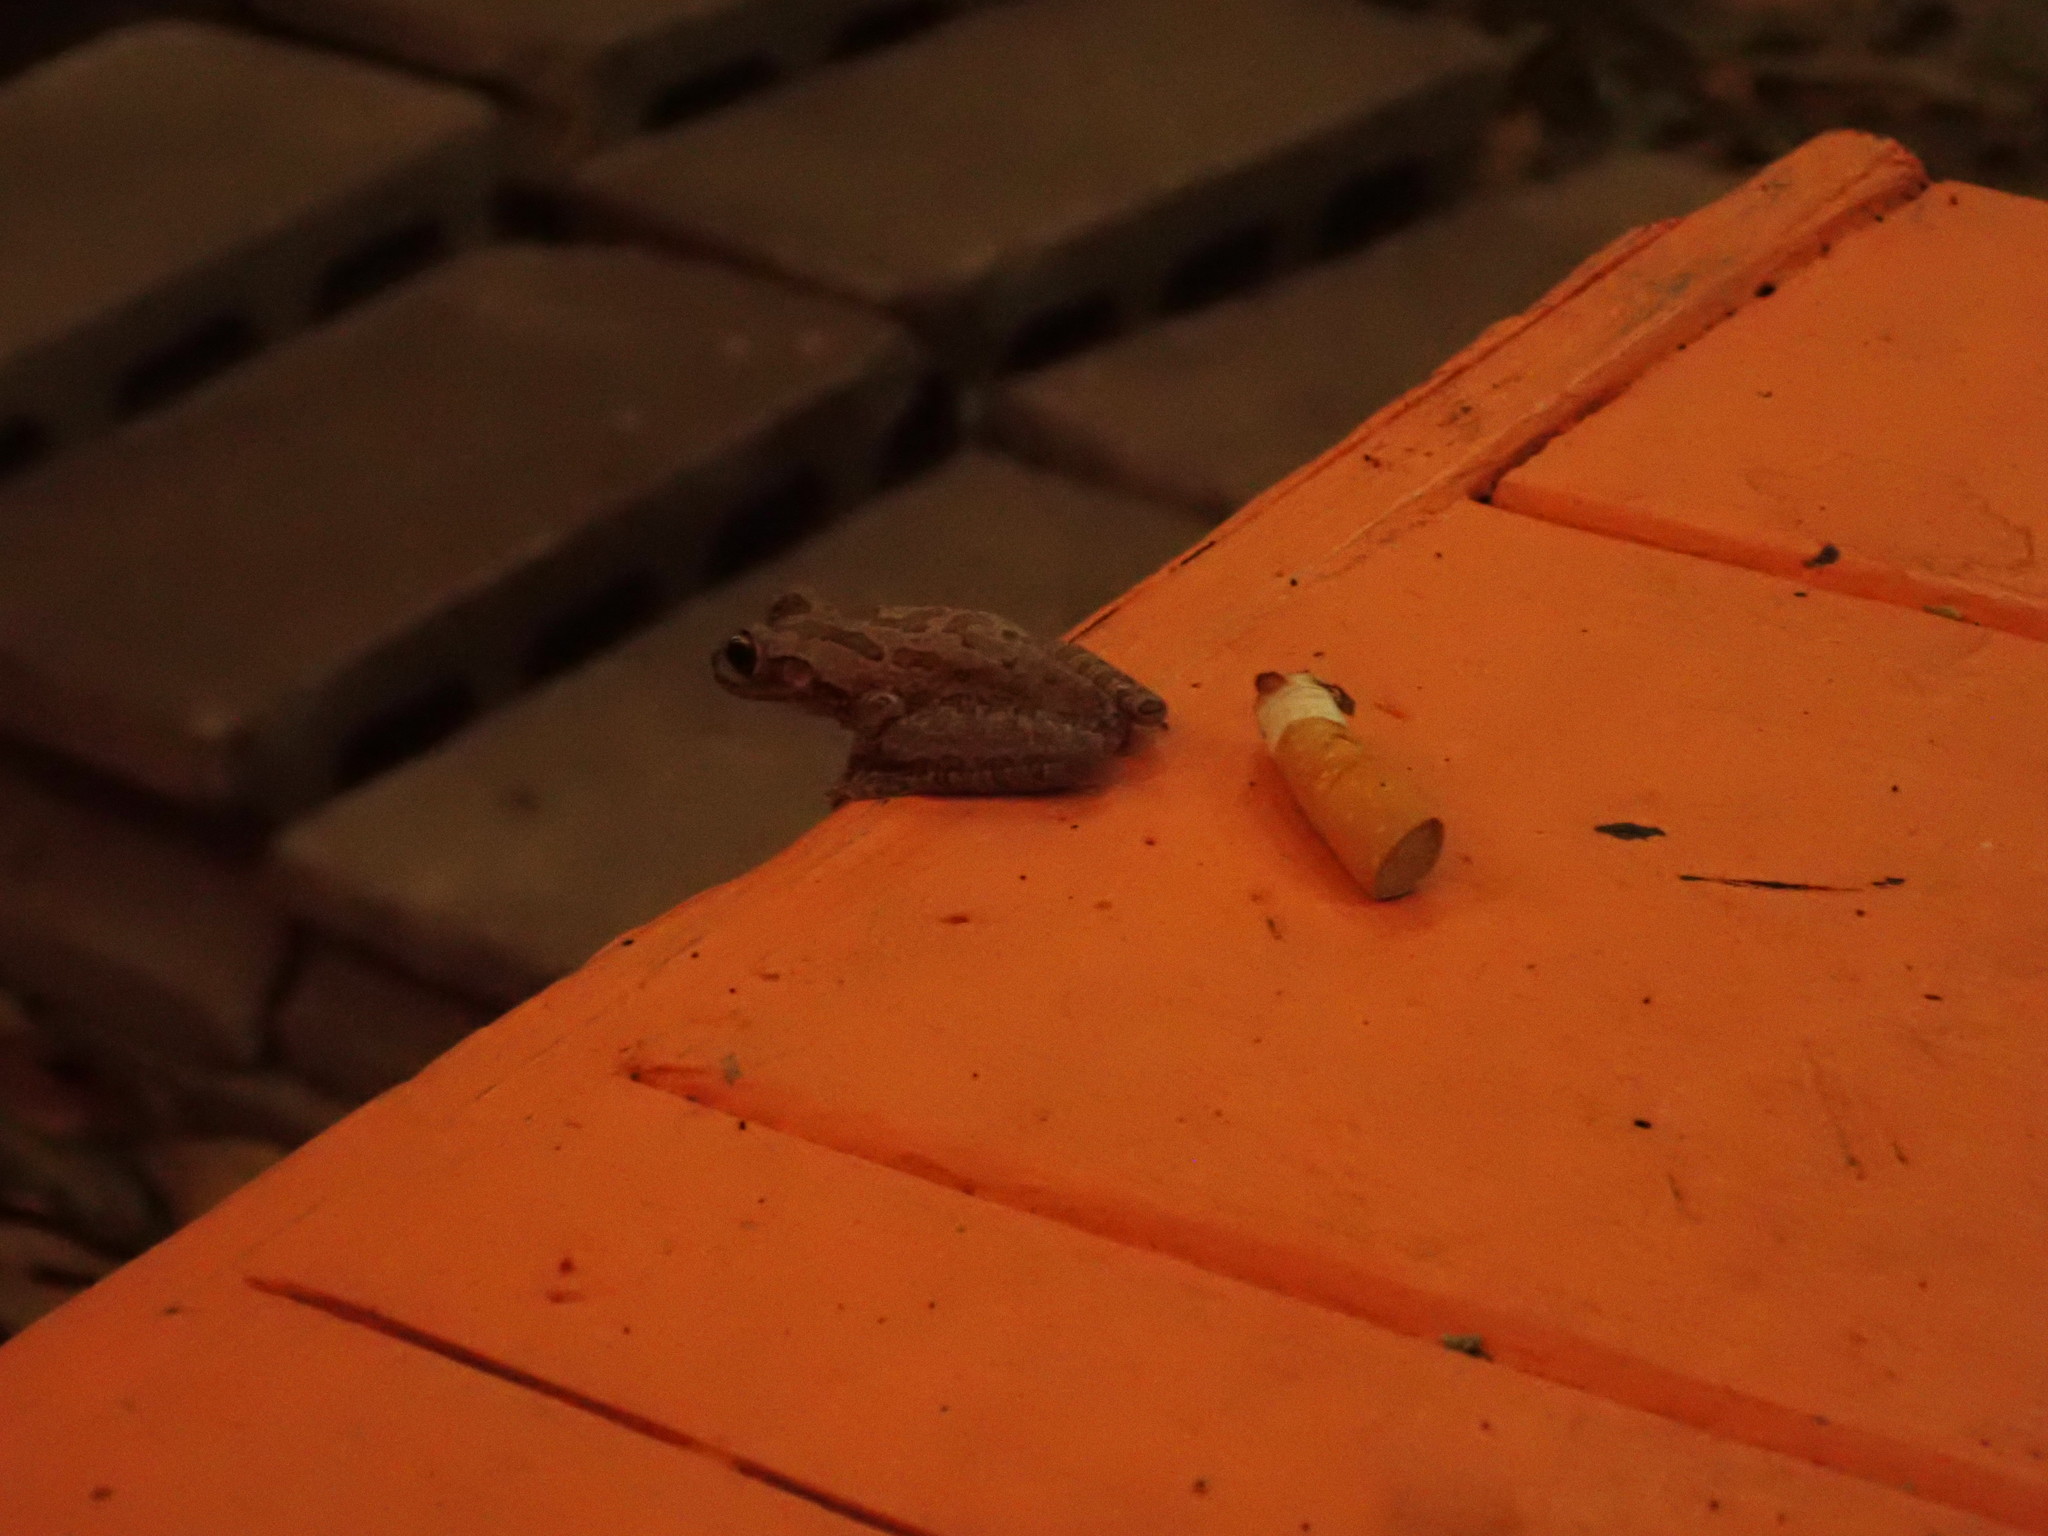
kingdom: Animalia
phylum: Chordata
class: Amphibia
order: Anura
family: Hylidae
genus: Osteopilus
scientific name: Osteopilus septentrionalis
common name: Cuban treefrog
